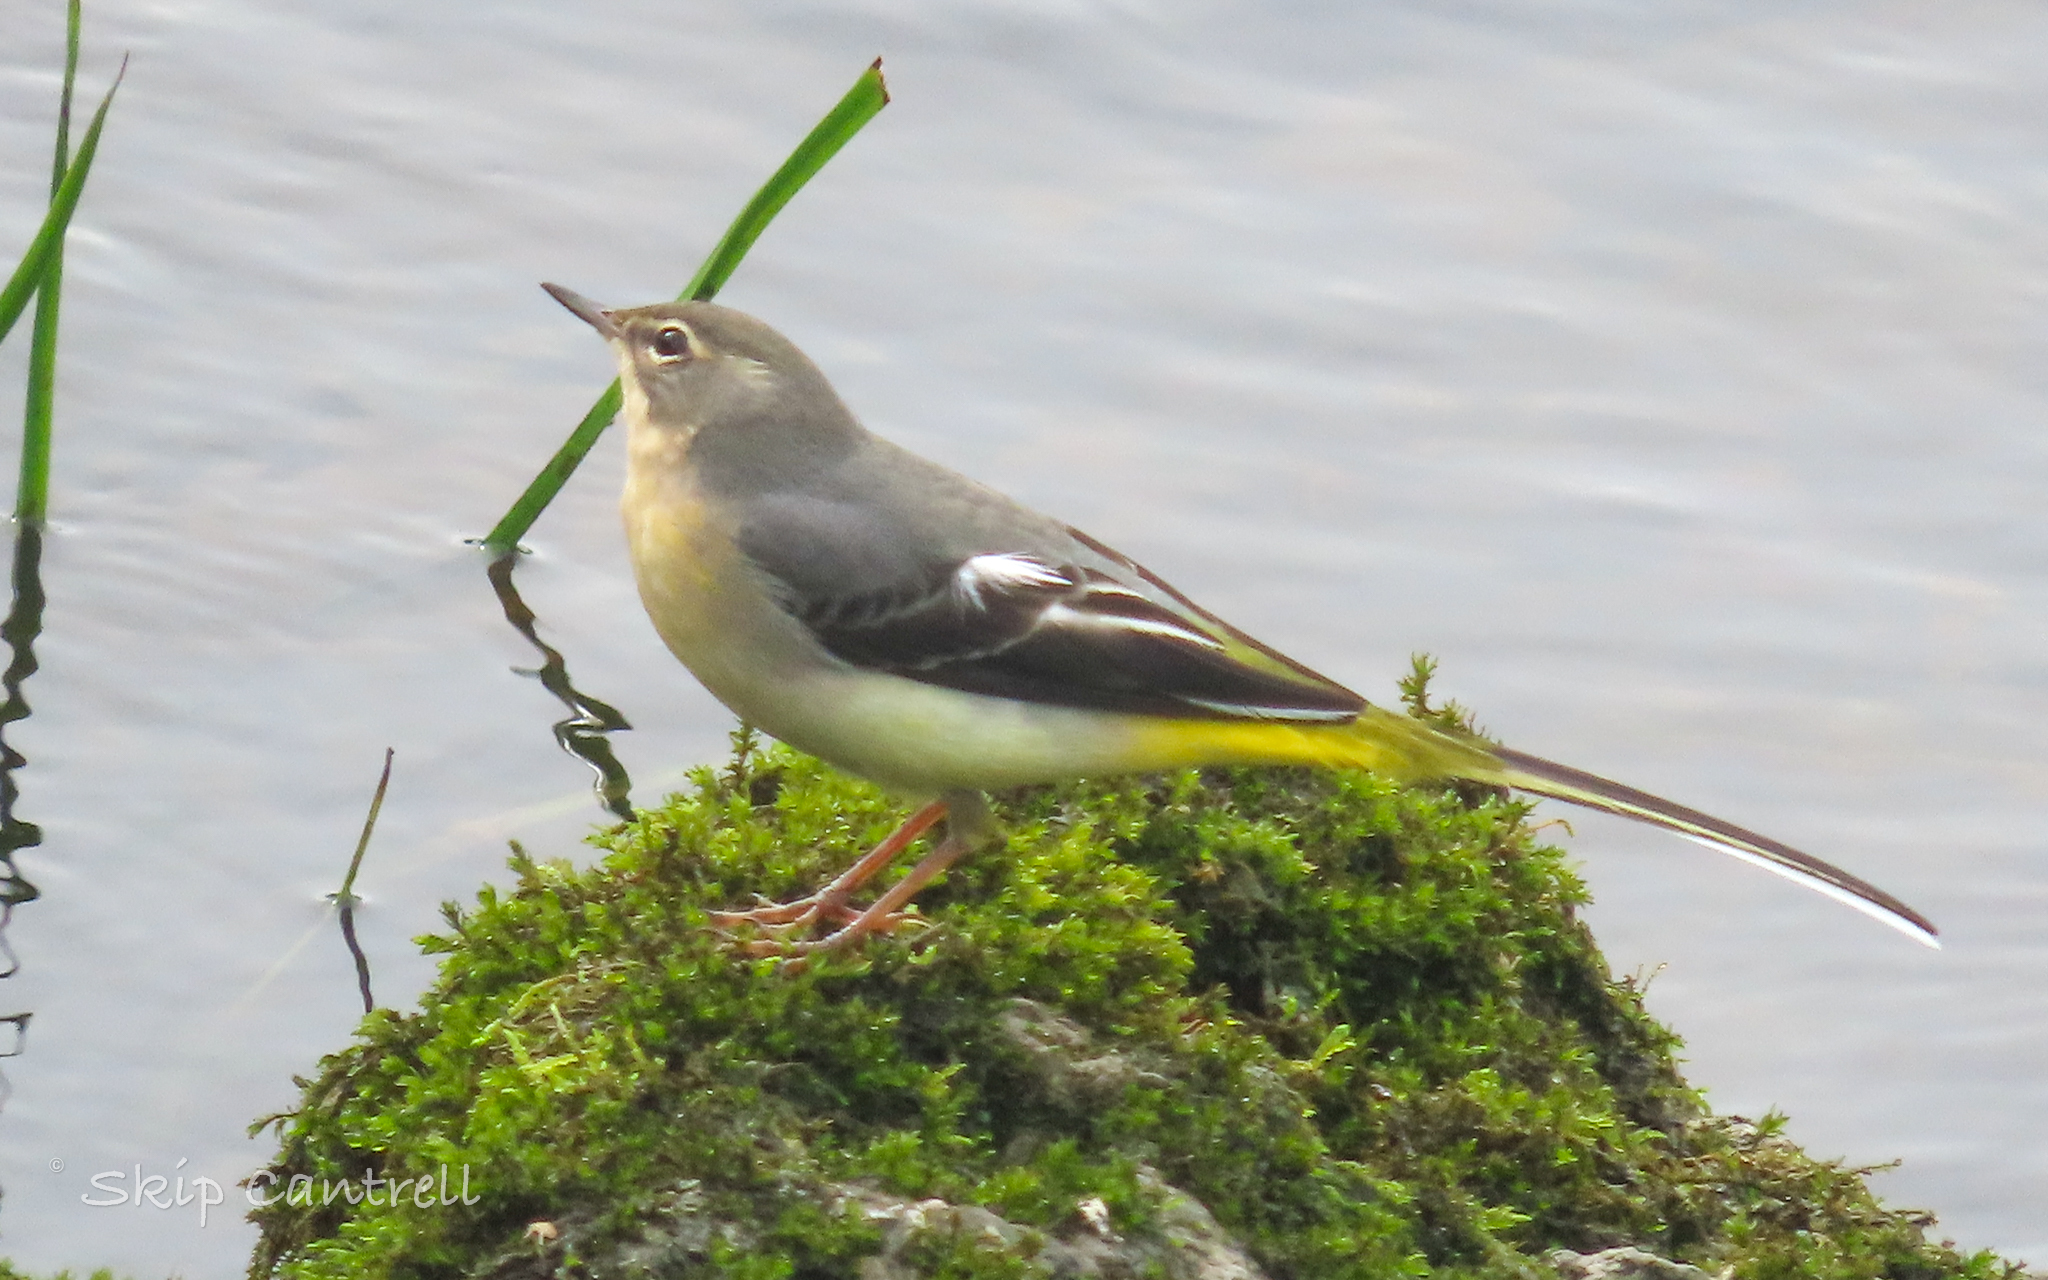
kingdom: Animalia
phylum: Chordata
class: Aves
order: Passeriformes
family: Motacillidae
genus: Motacilla
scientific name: Motacilla cinerea
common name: Grey wagtail
